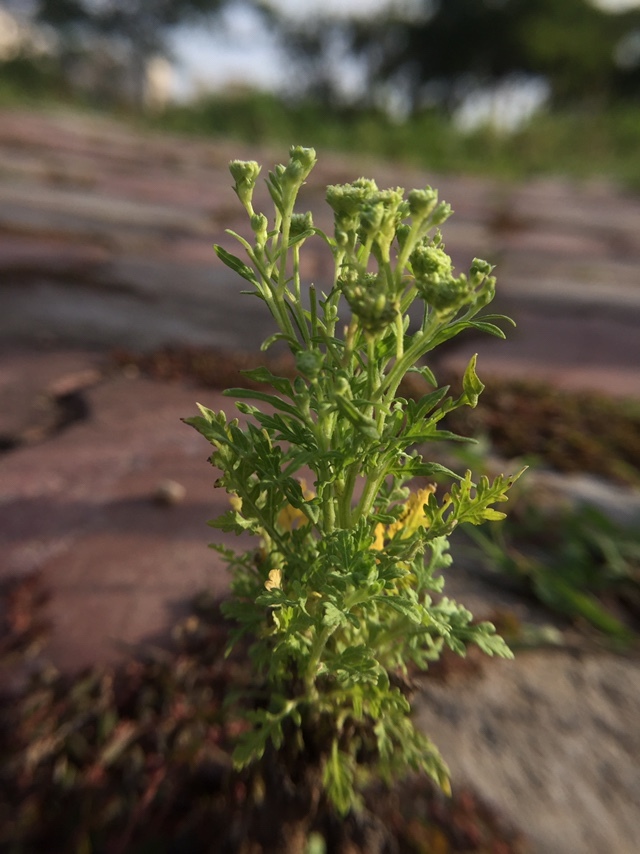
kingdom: Plantae
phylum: Tracheophyta
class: Magnoliopsida
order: Asterales
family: Asteraceae
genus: Parthenium
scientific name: Parthenium hysterophorus
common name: Santa maria feverfew
